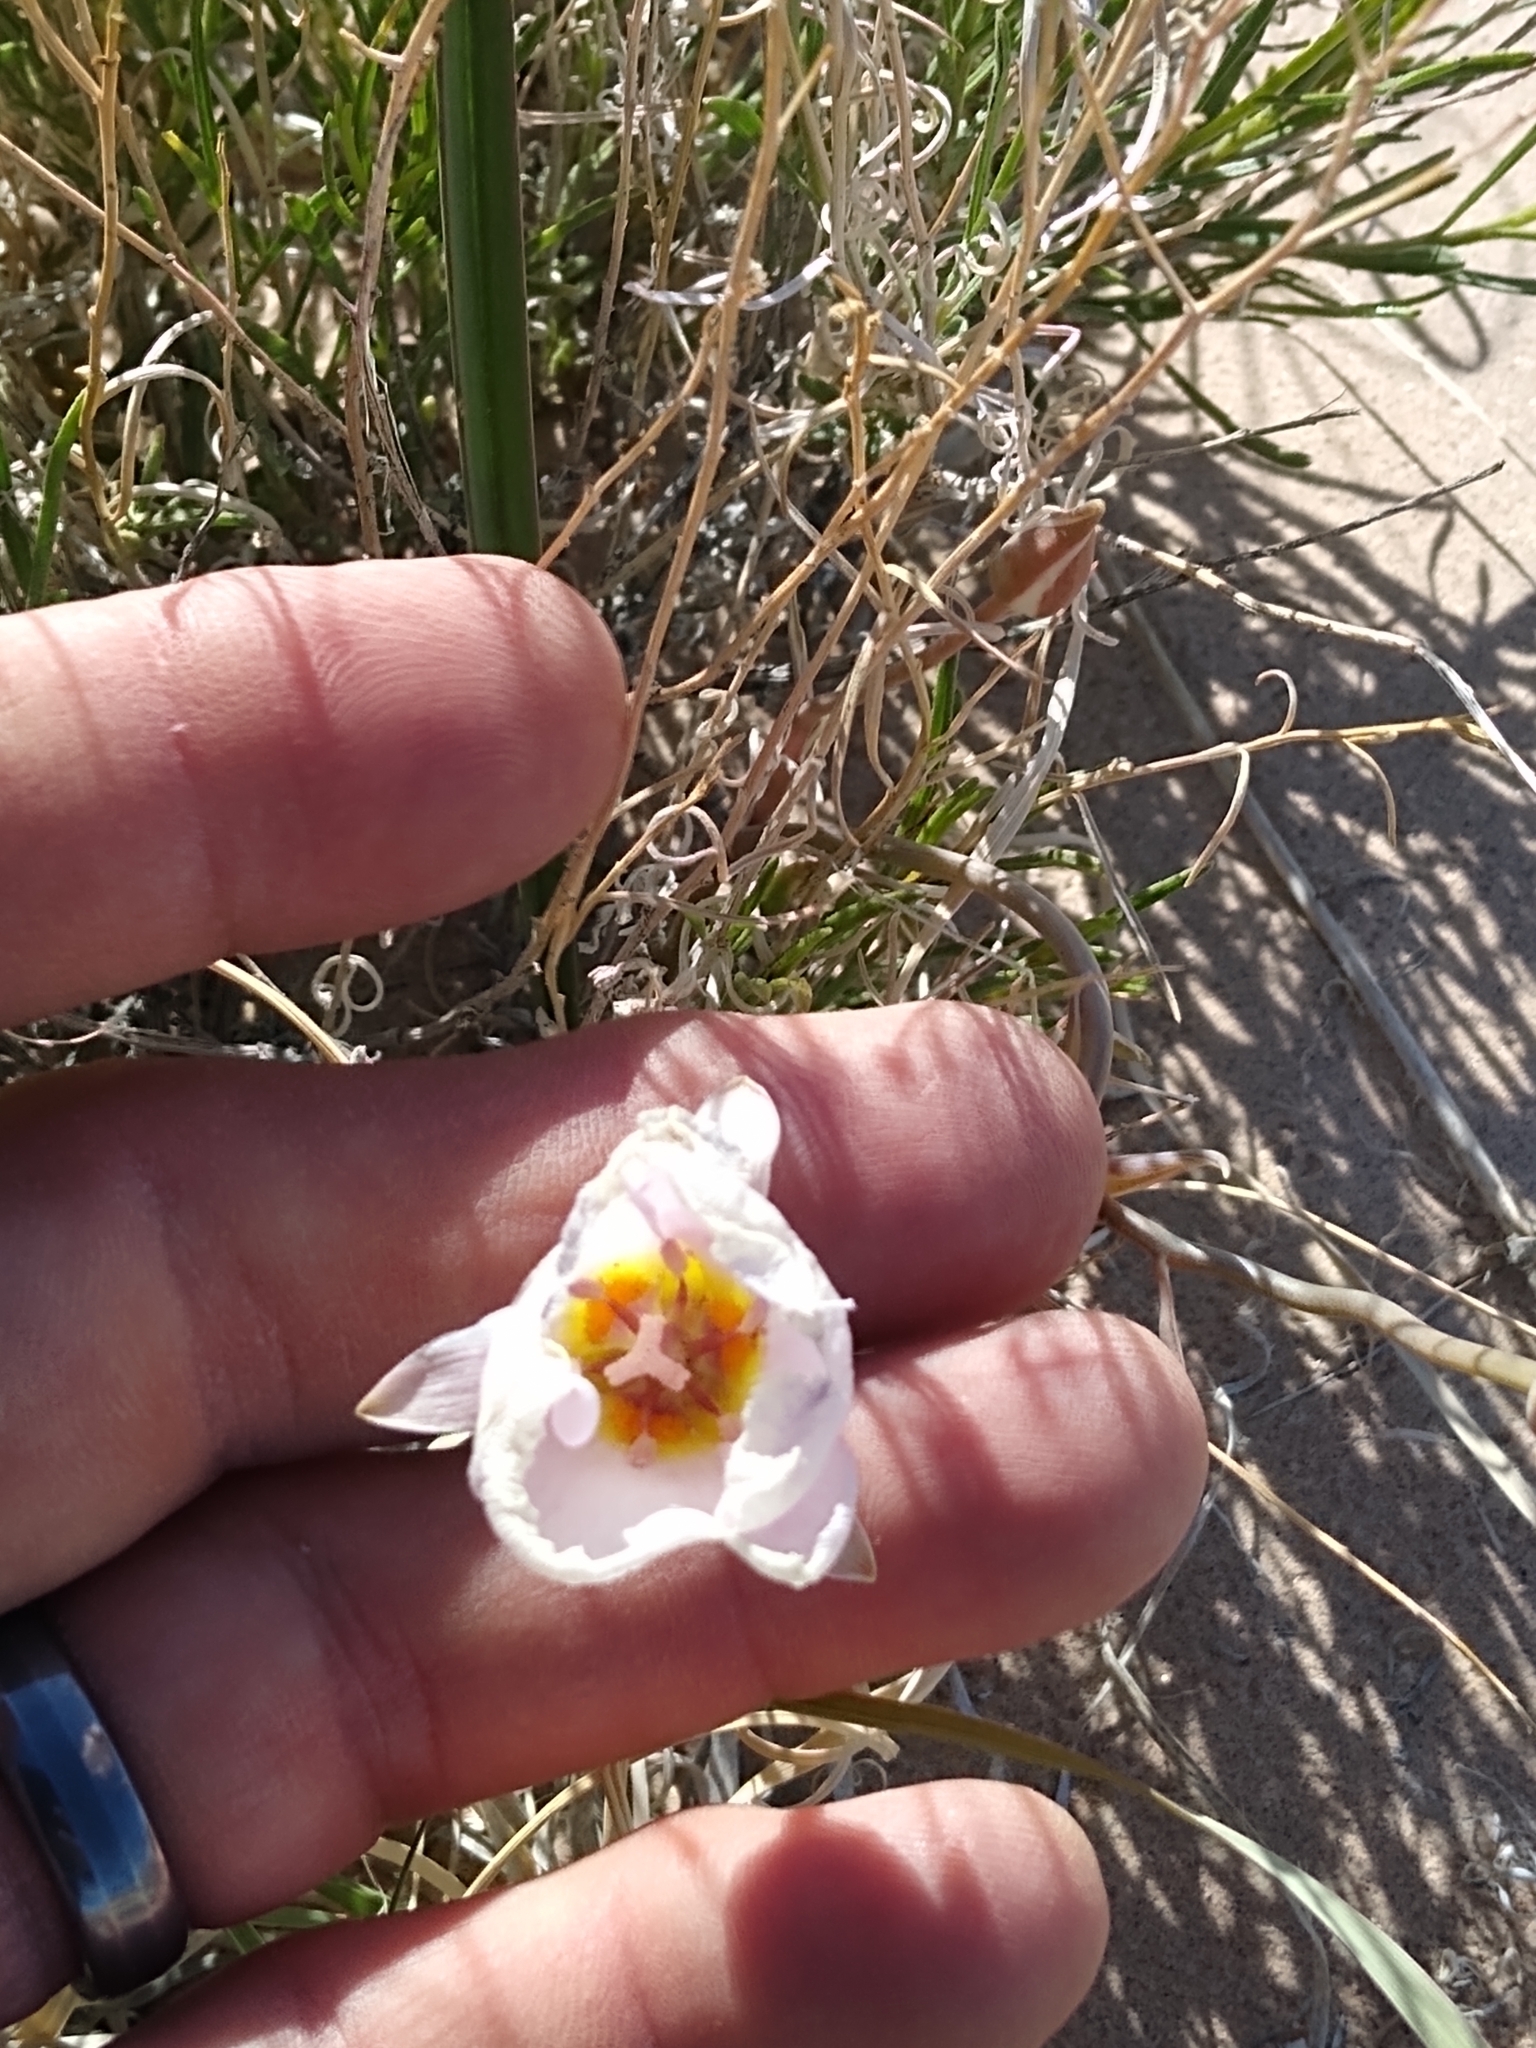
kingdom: Plantae
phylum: Tracheophyta
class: Liliopsida
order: Liliales
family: Liliaceae
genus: Calochortus
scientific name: Calochortus flexuosus
